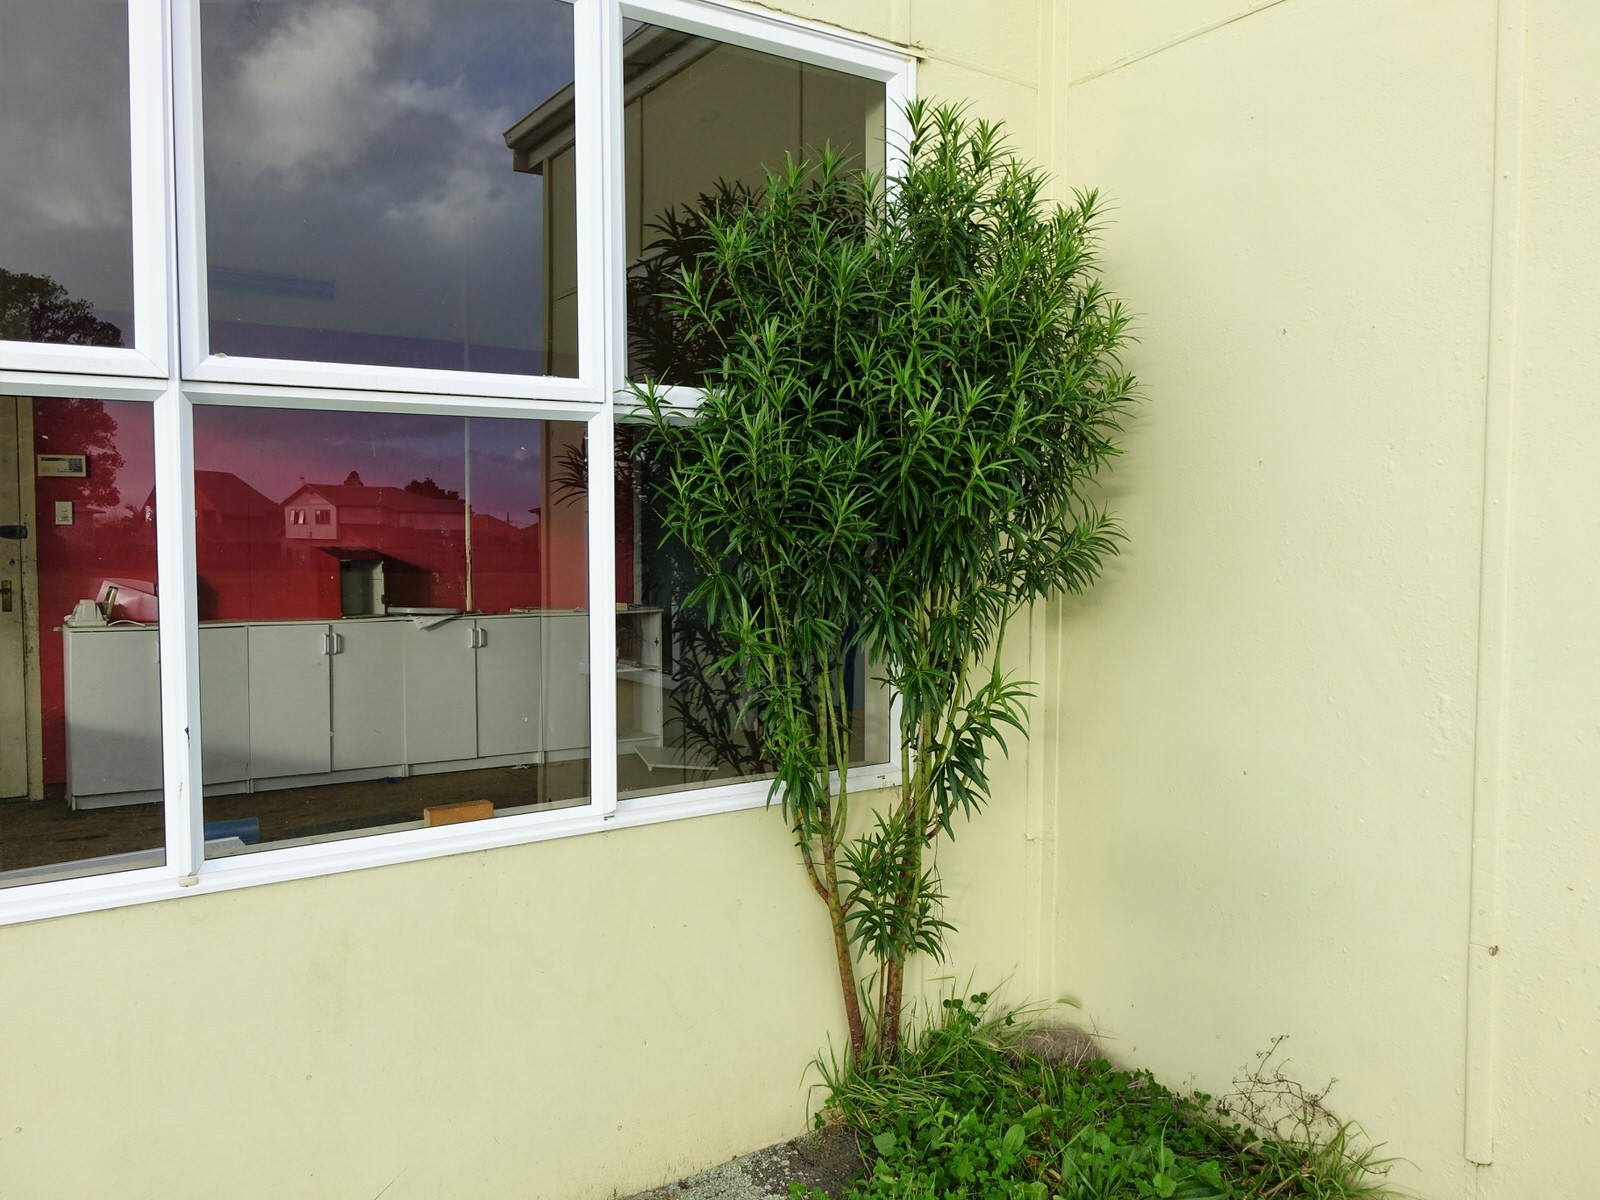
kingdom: Animalia
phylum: Arthropoda
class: Insecta
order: Lepidoptera
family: Nymphalidae
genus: Danaus
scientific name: Danaus plexippus
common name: Monarch
